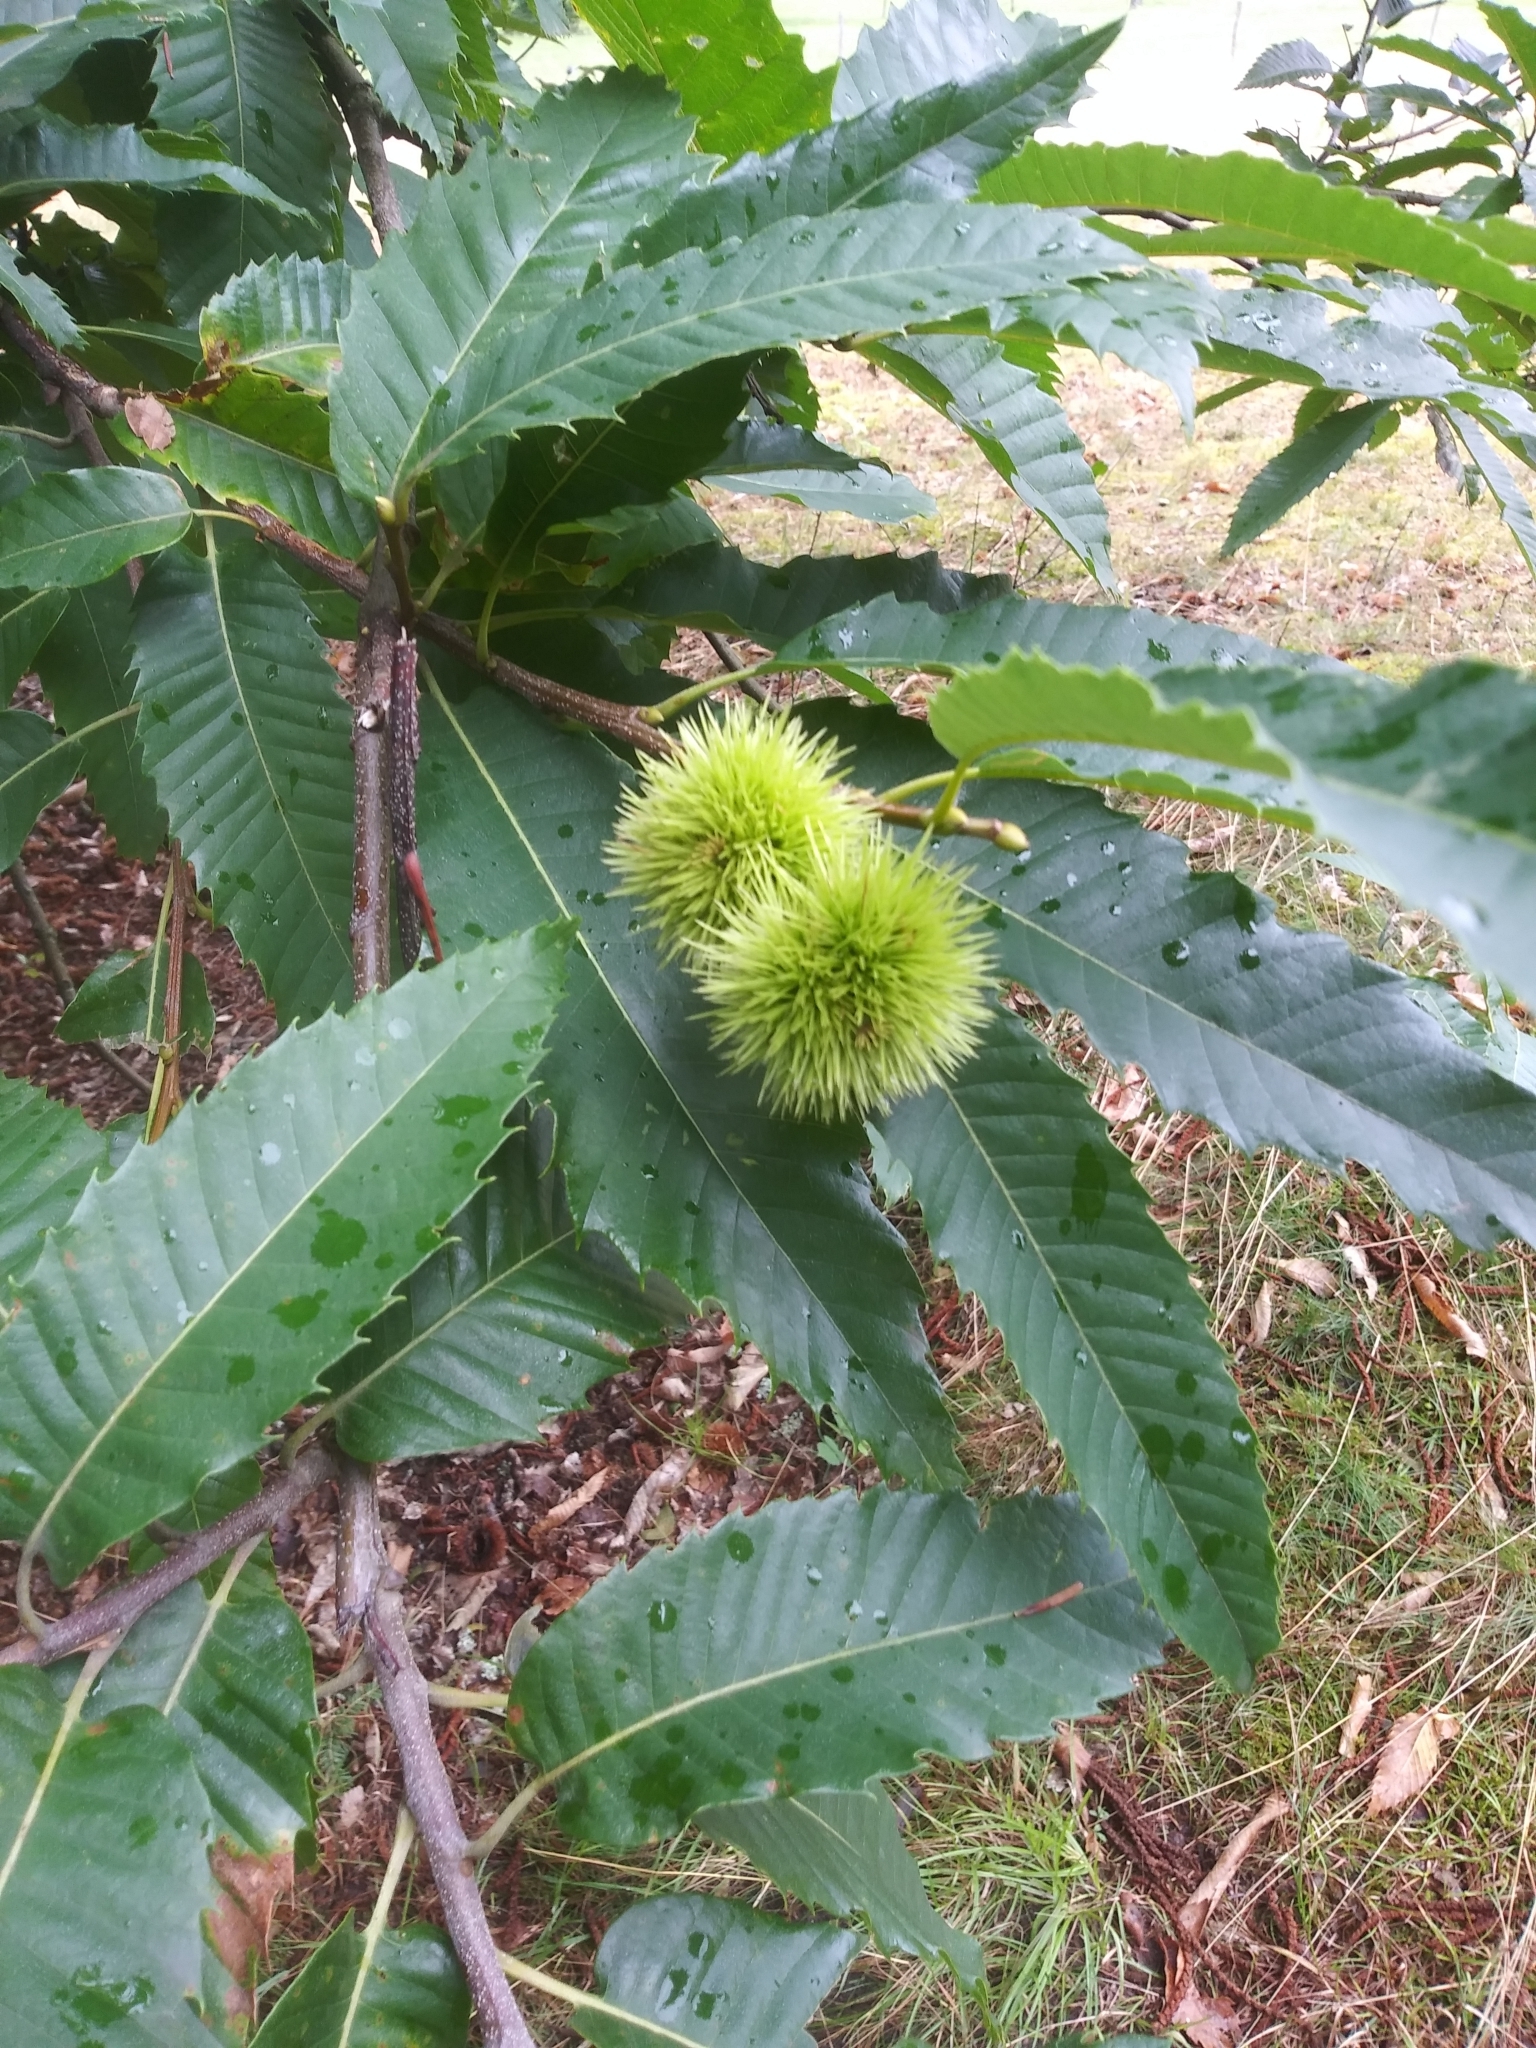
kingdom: Plantae
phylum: Tracheophyta
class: Magnoliopsida
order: Fagales
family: Fagaceae
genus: Castanea
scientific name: Castanea sativa
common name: Sweet chestnut
